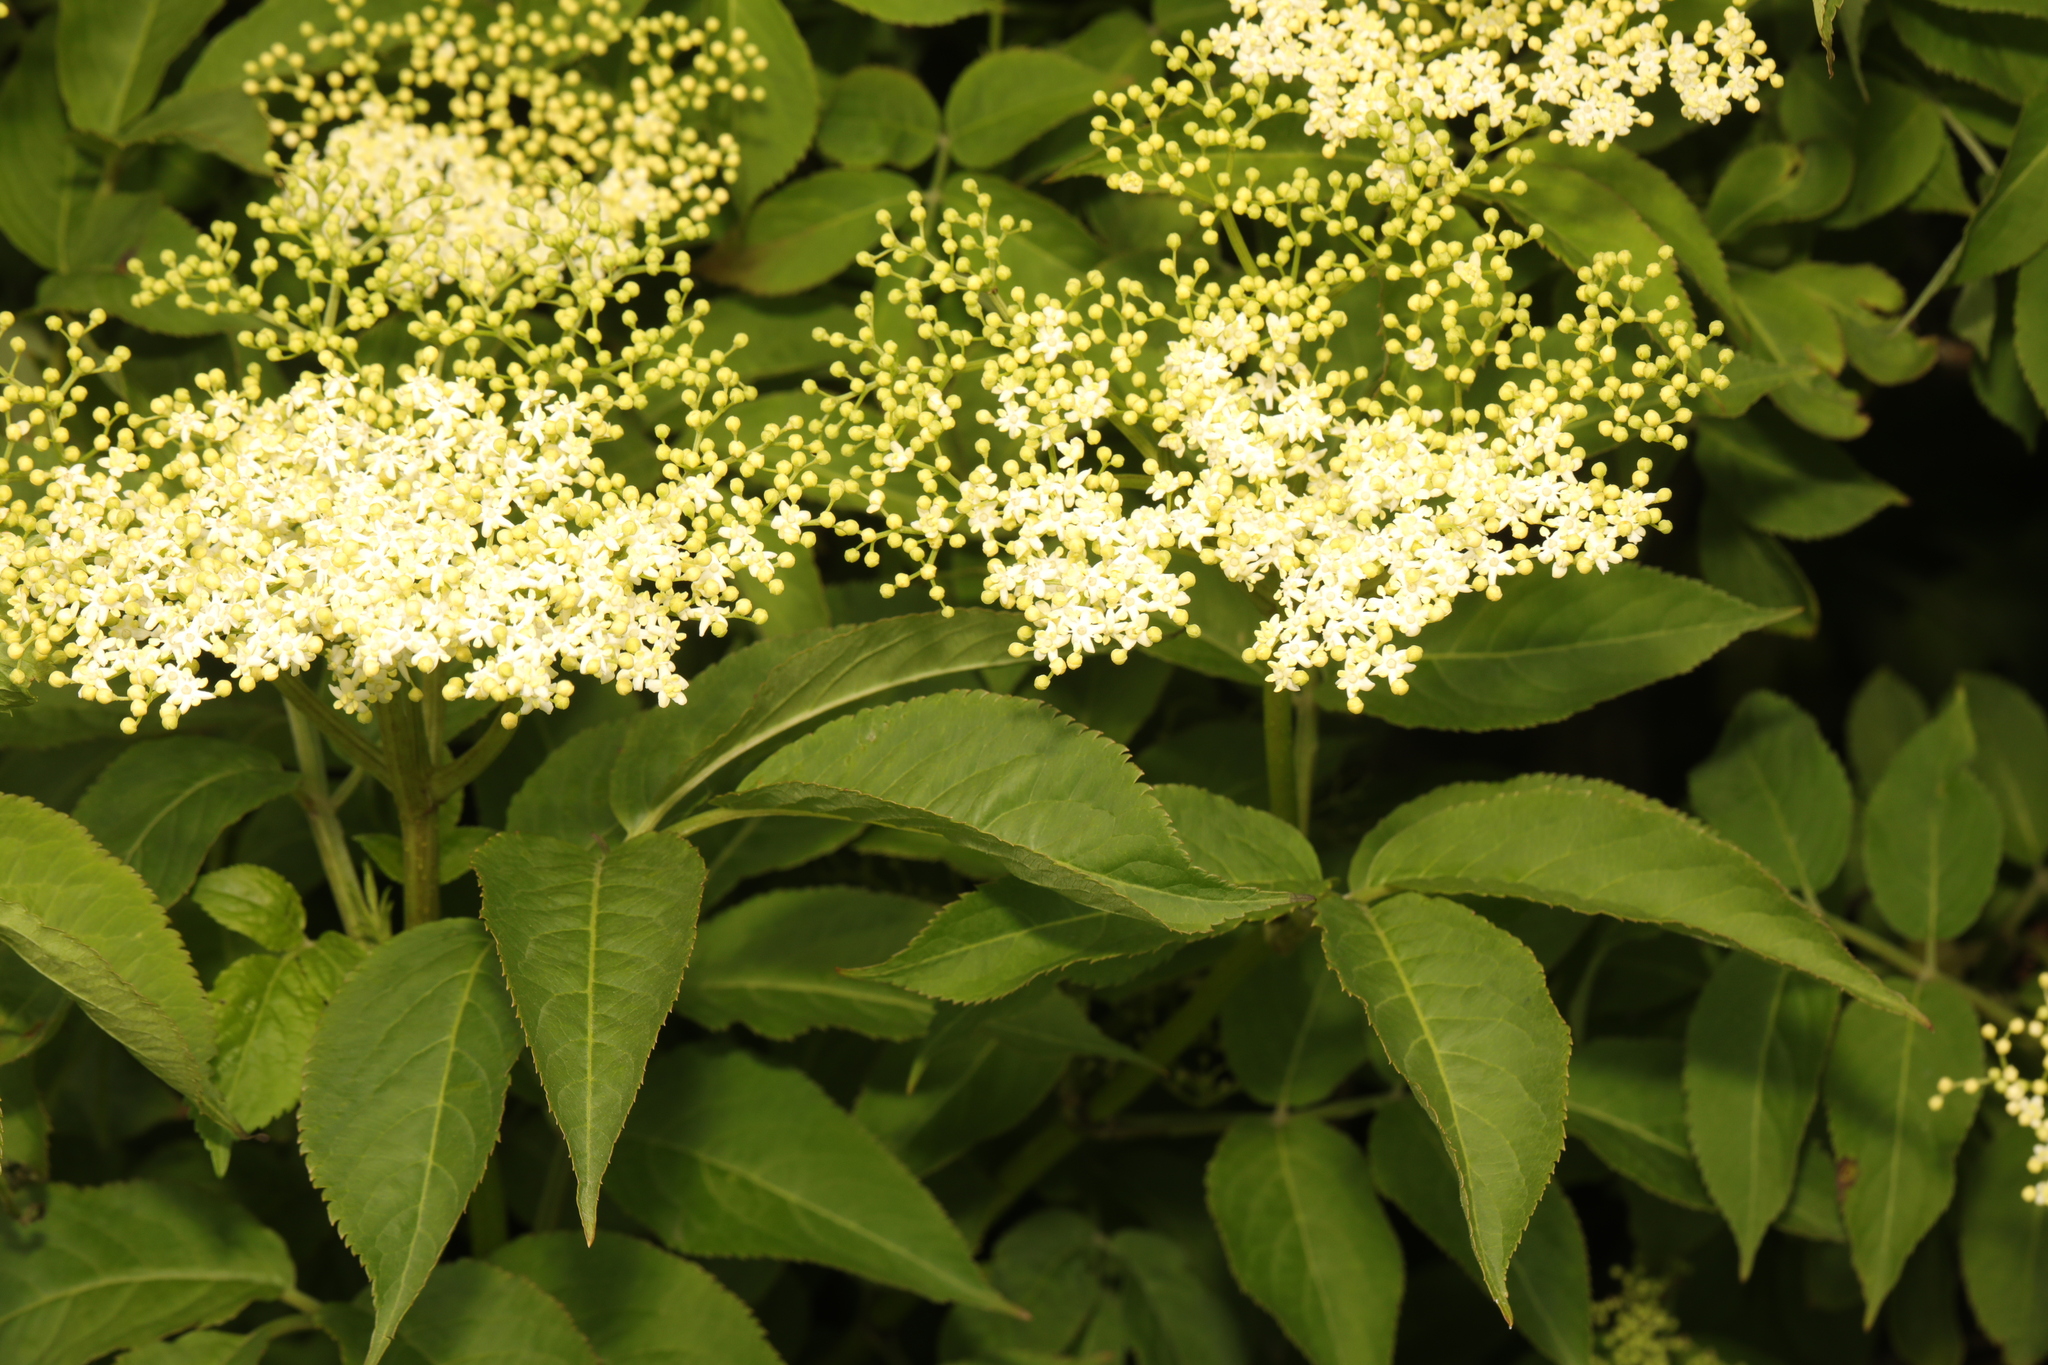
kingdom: Plantae
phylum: Tracheophyta
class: Magnoliopsida
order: Dipsacales
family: Viburnaceae
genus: Sambucus
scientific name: Sambucus nigra
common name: Elder
